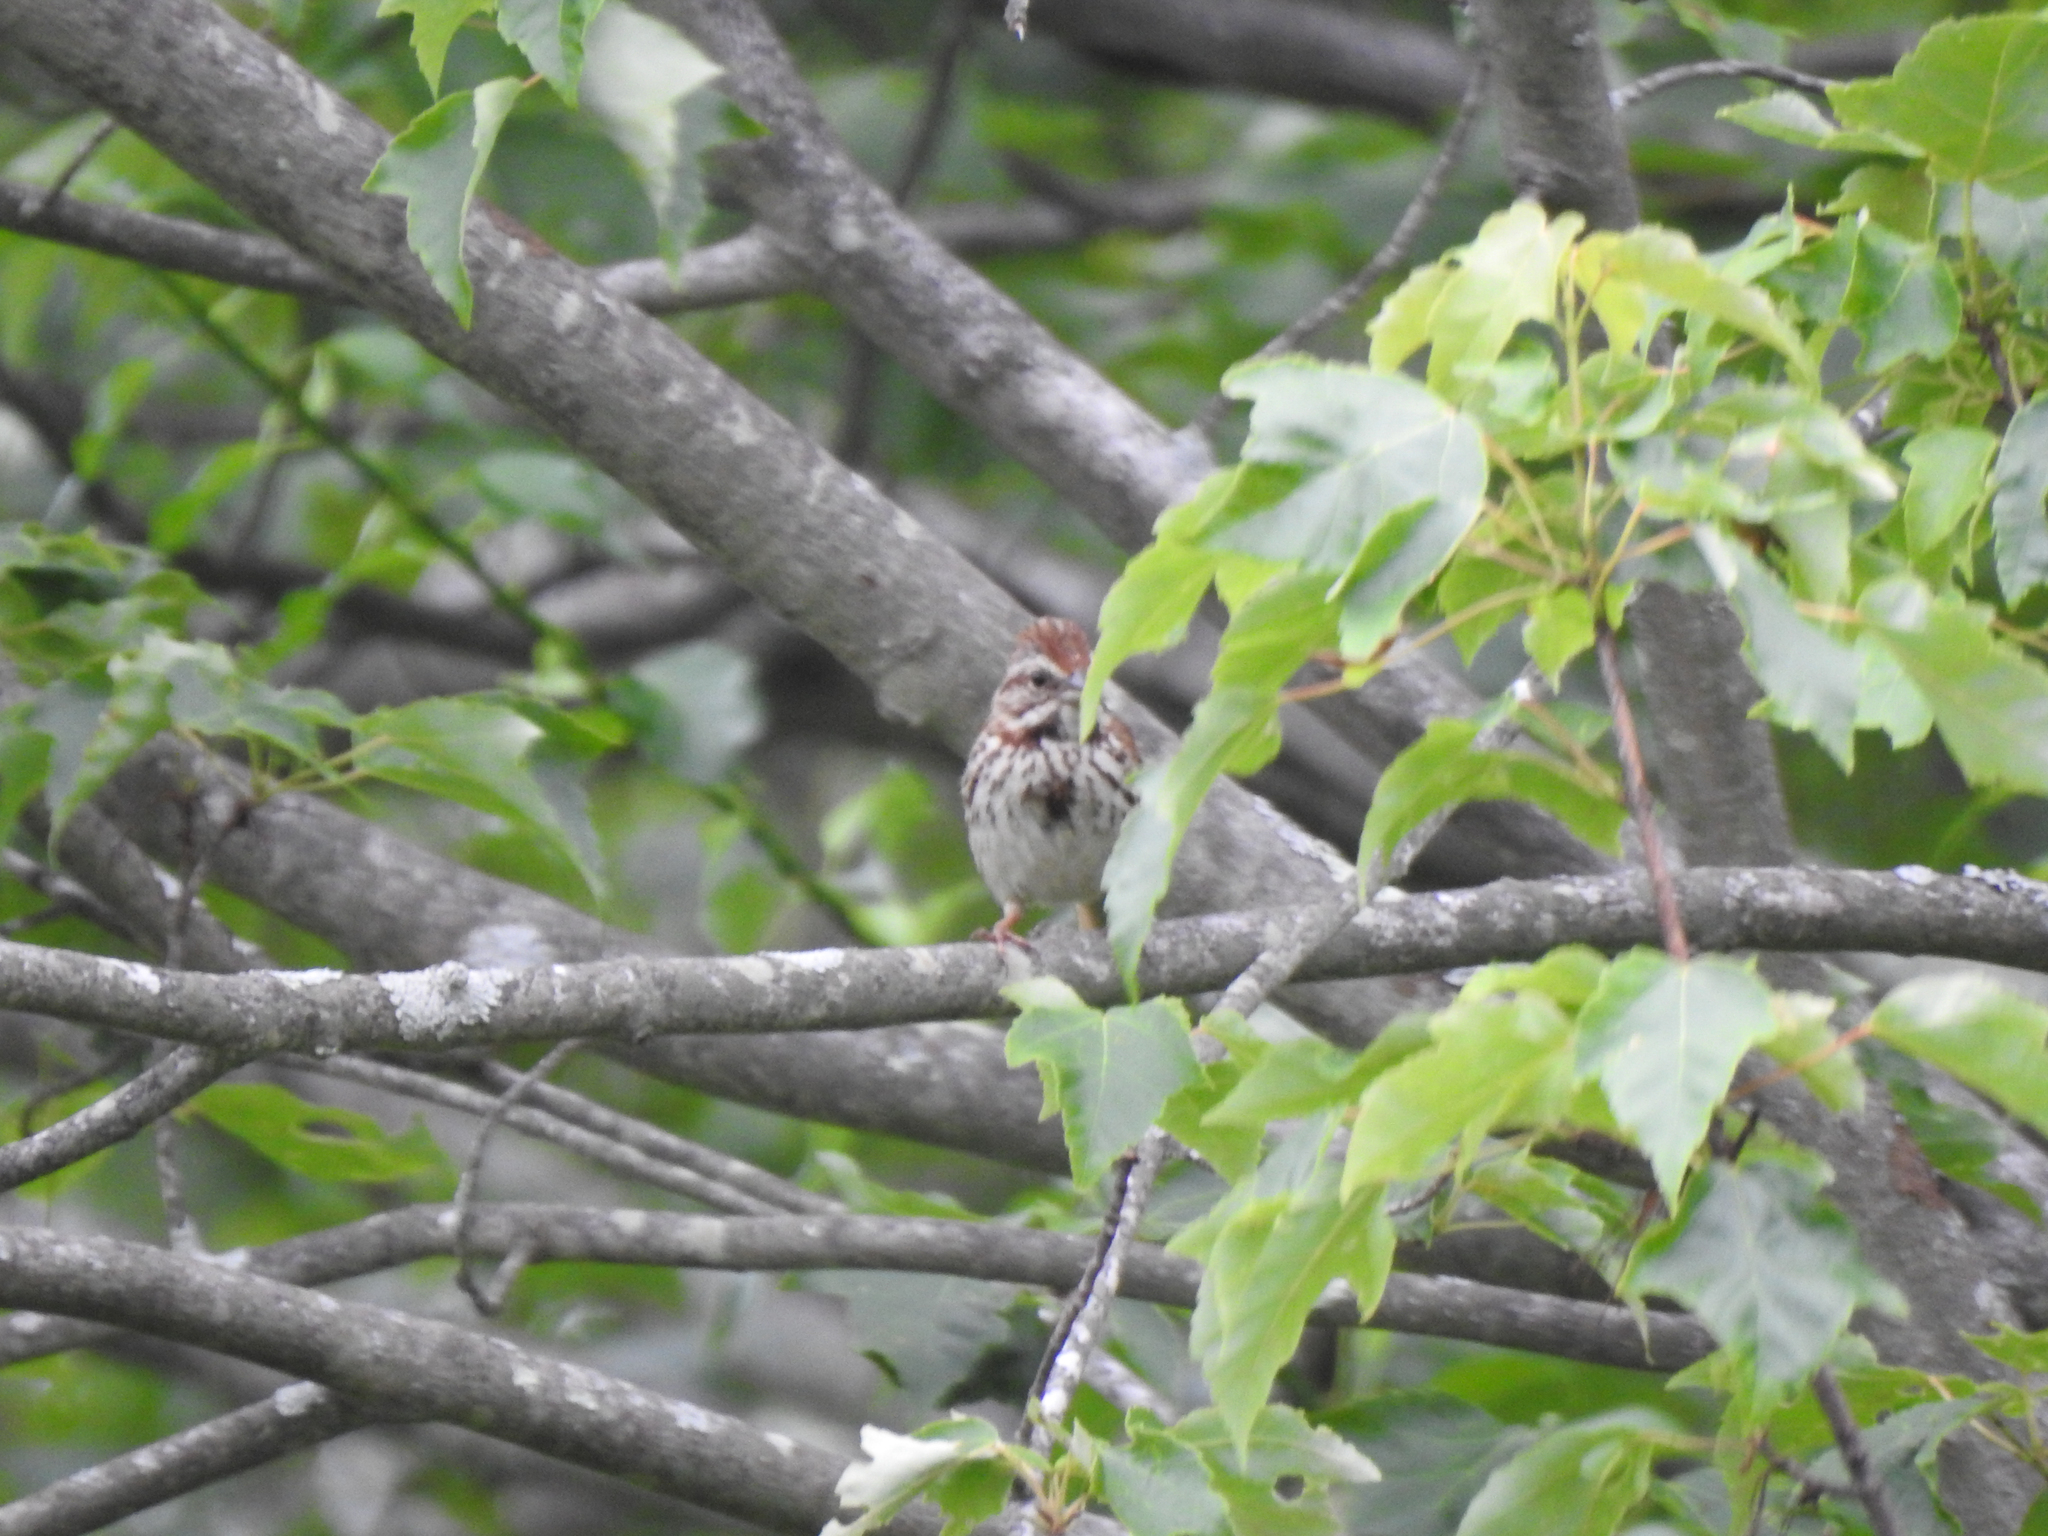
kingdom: Animalia
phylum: Chordata
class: Aves
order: Passeriformes
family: Passerellidae
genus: Melospiza
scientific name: Melospiza melodia
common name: Song sparrow
